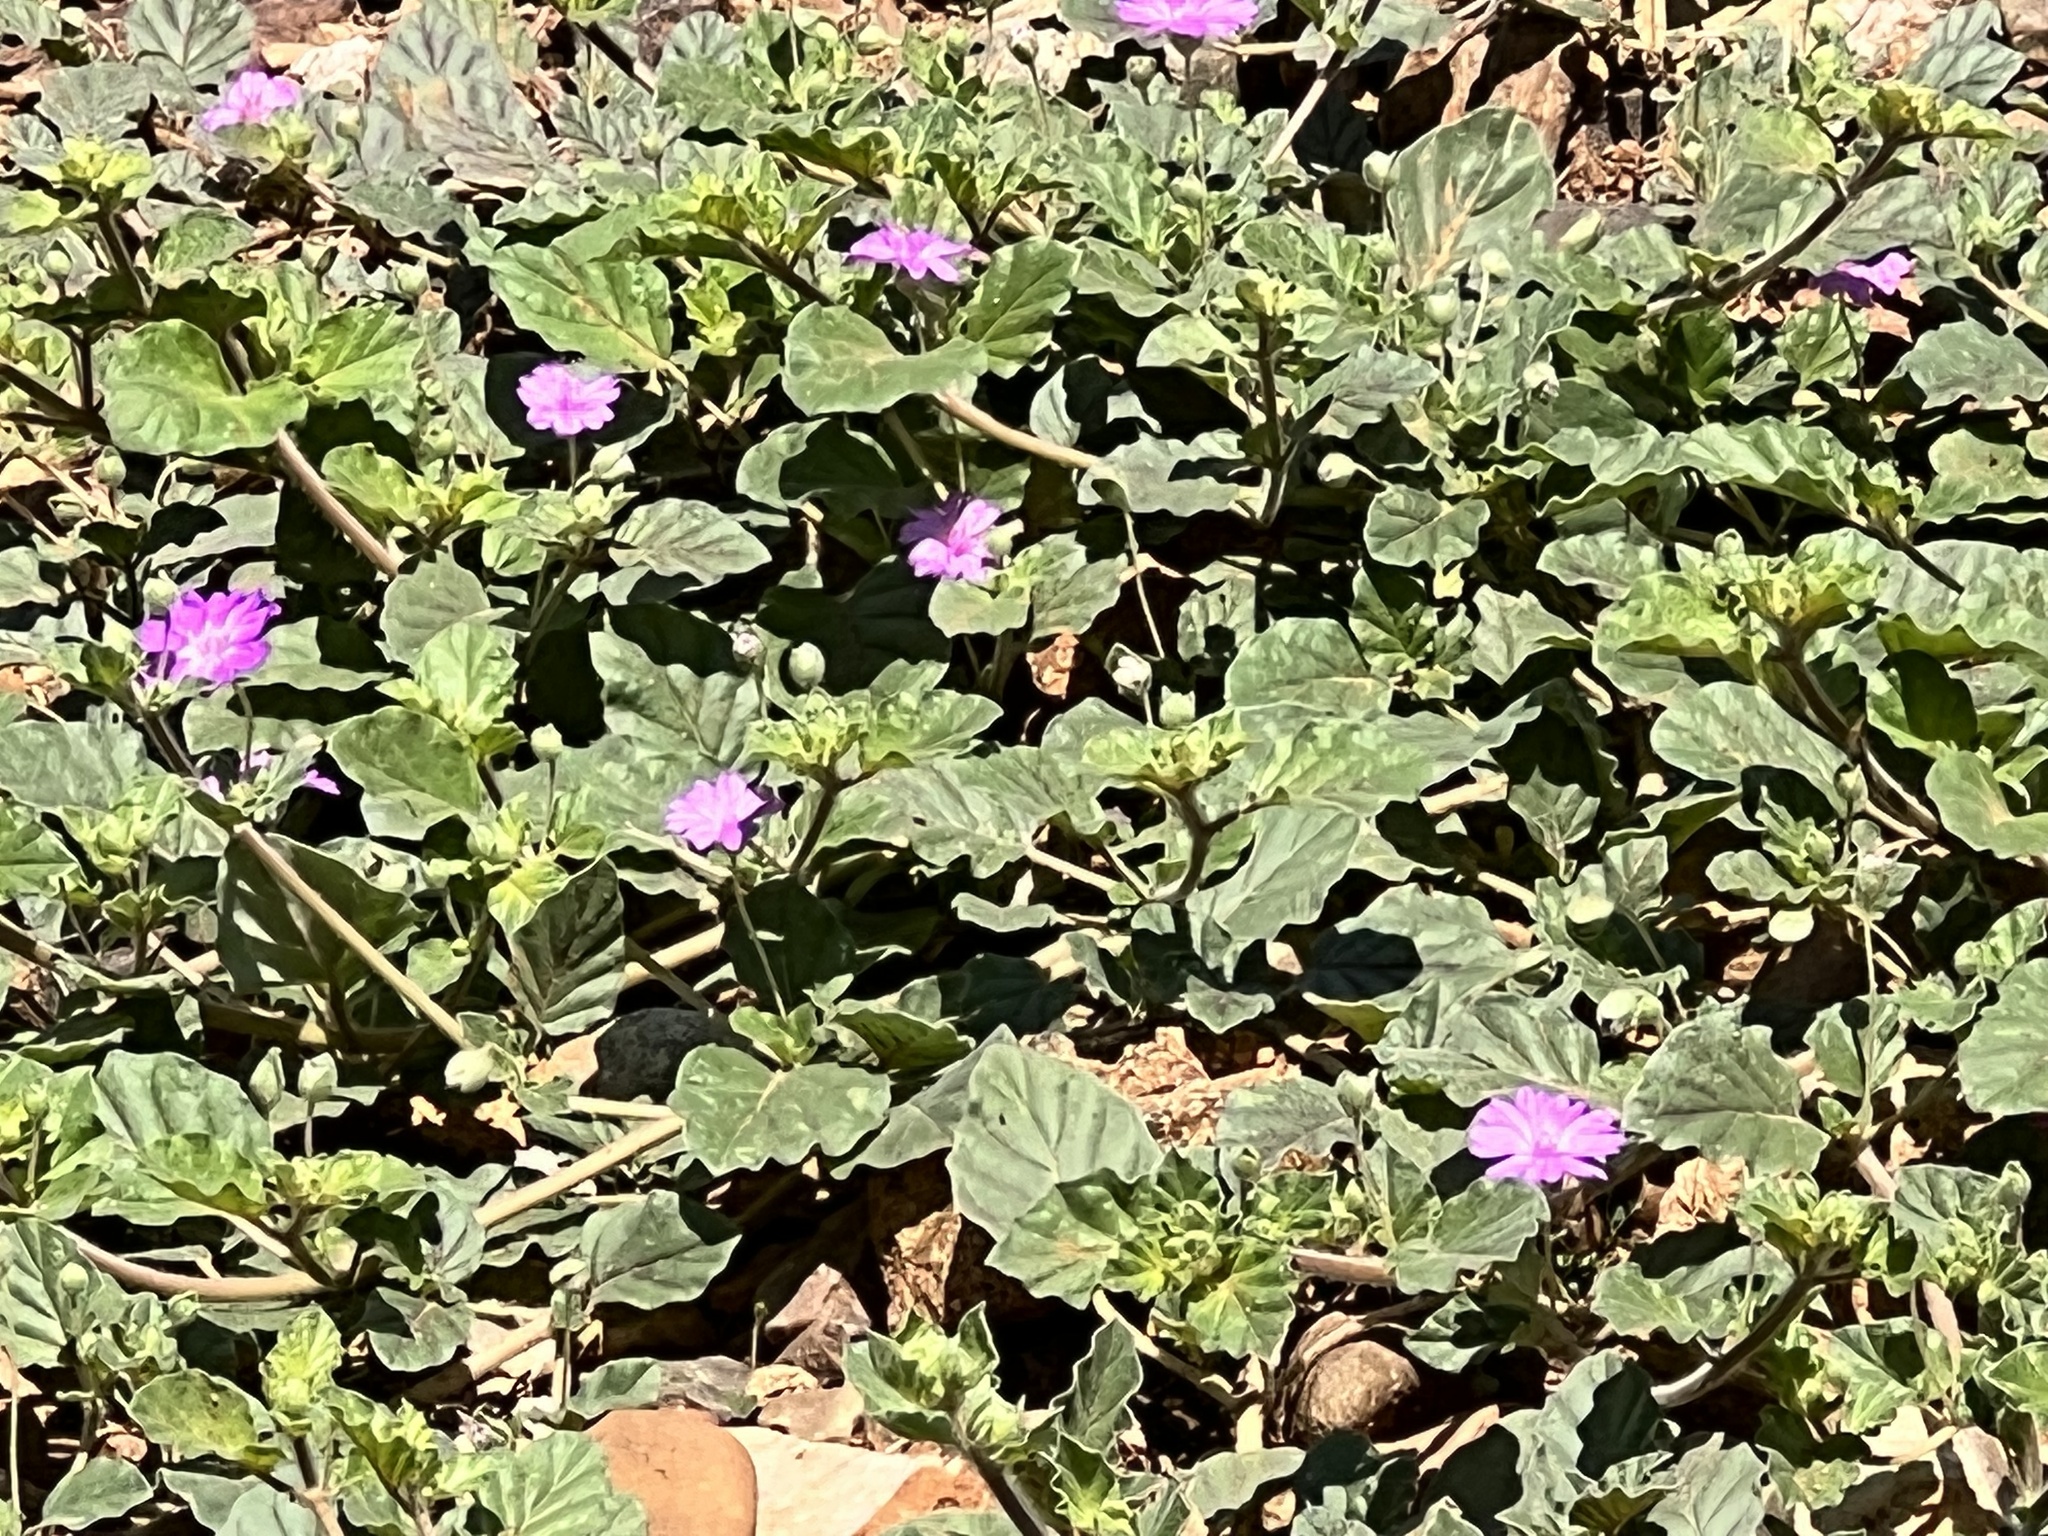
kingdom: Plantae
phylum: Tracheophyta
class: Magnoliopsida
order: Caryophyllales
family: Nyctaginaceae
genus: Allionia
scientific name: Allionia incarnata
